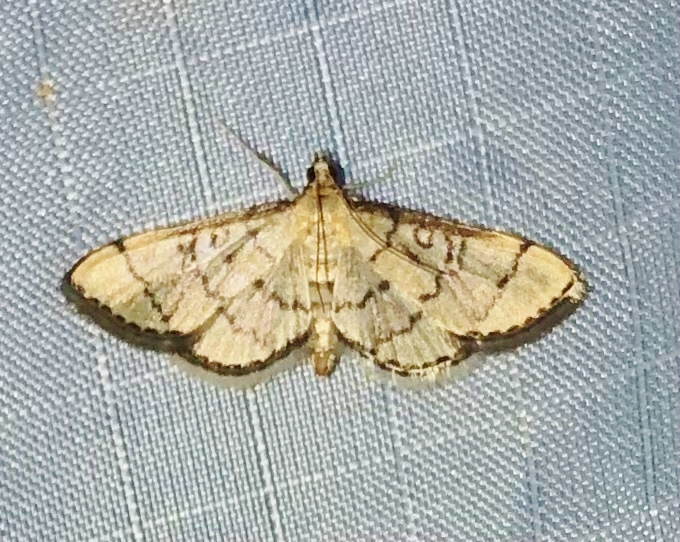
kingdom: Animalia
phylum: Arthropoda
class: Insecta
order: Lepidoptera
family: Crambidae
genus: Lamprosema
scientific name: Lamprosema Blepharomastix ranalis
